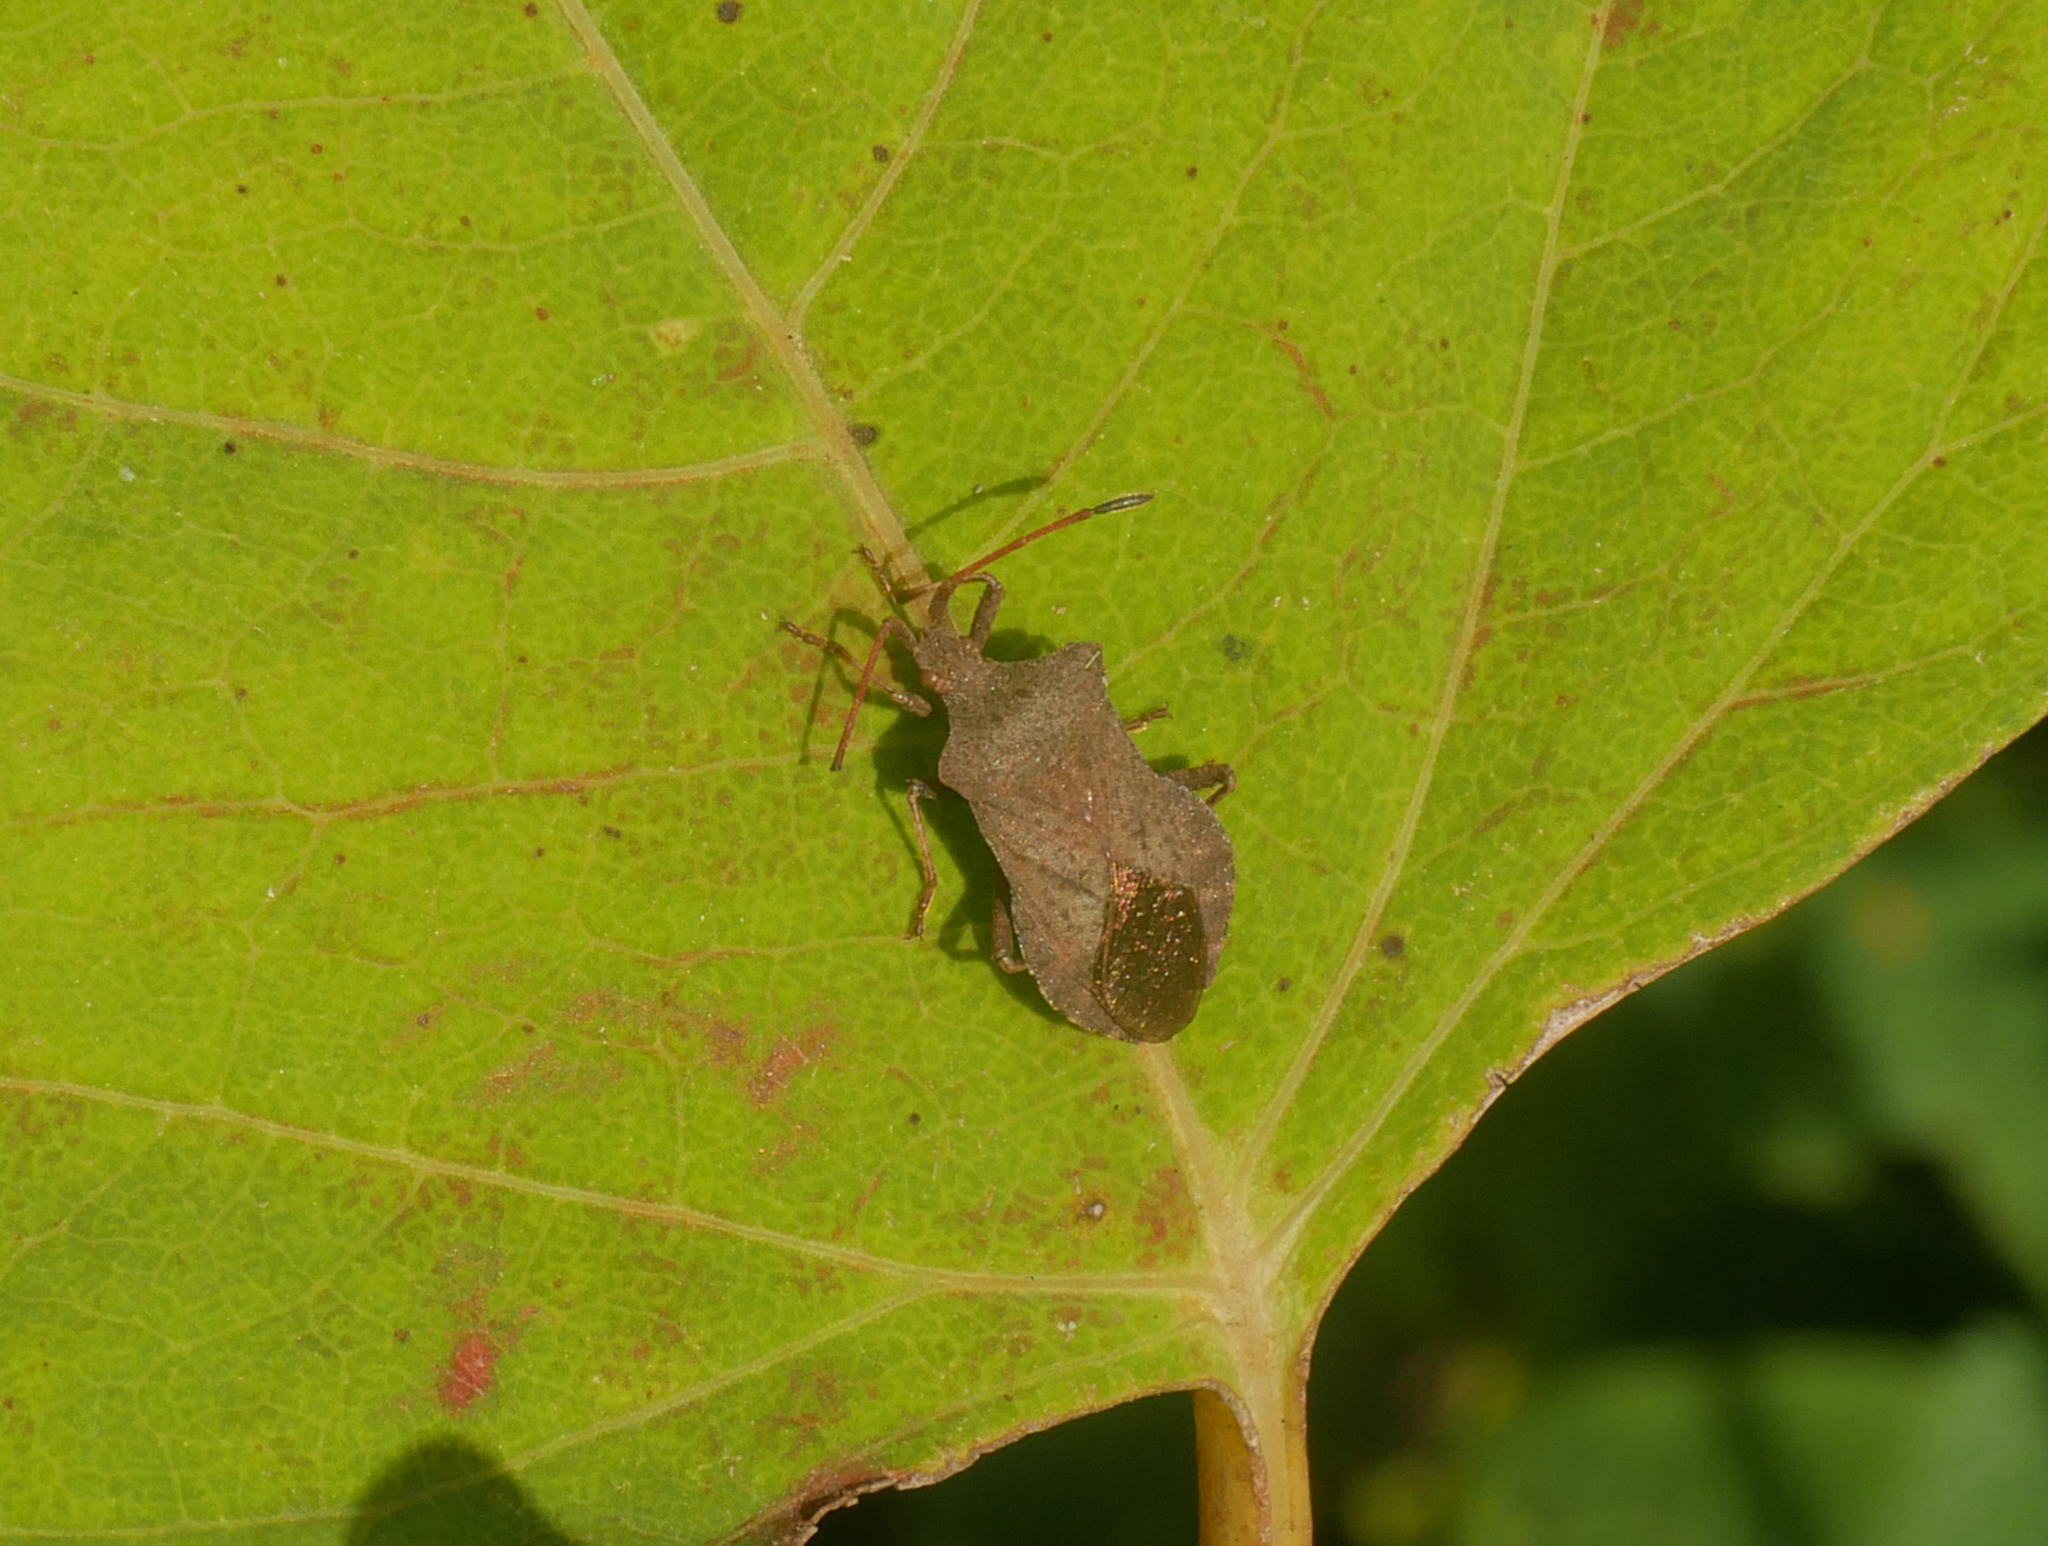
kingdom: Animalia
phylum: Arthropoda
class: Insecta
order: Hemiptera
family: Coreidae
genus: Coreus
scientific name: Coreus marginatus
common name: Dock bug
